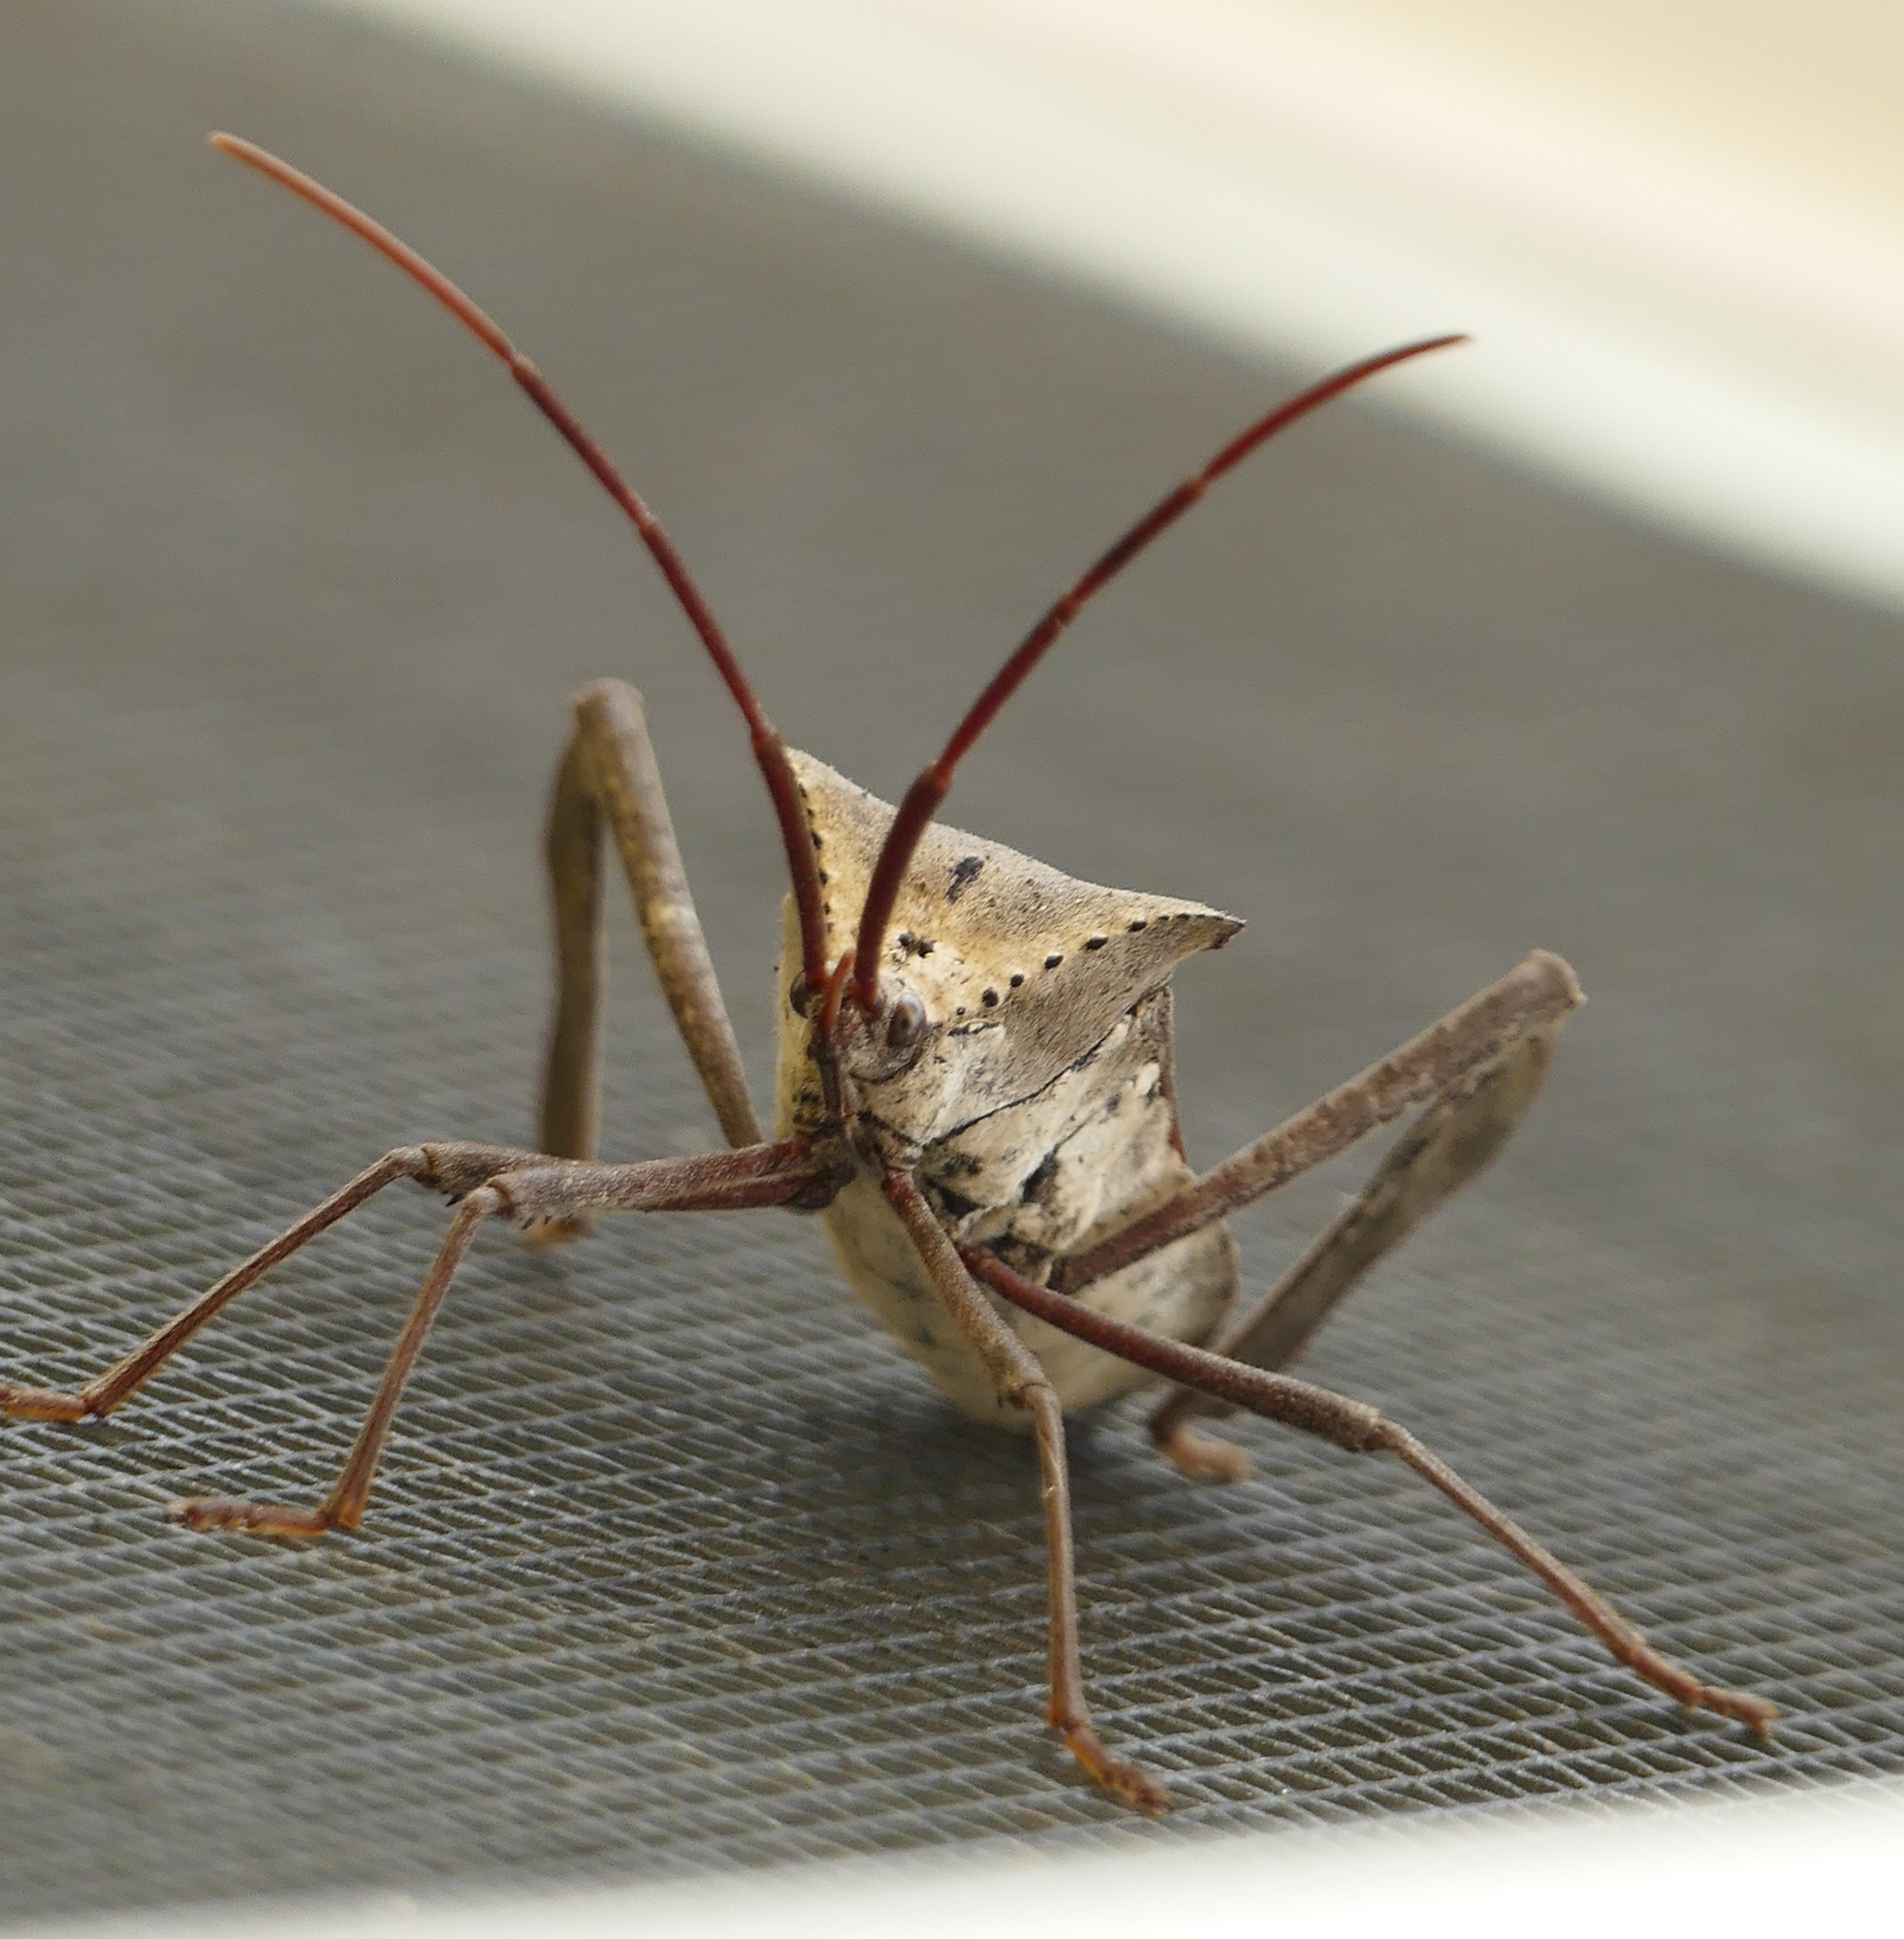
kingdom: Animalia
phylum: Arthropoda
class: Insecta
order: Hemiptera
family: Coreidae
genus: Acanthocephala
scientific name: Acanthocephala declivis
